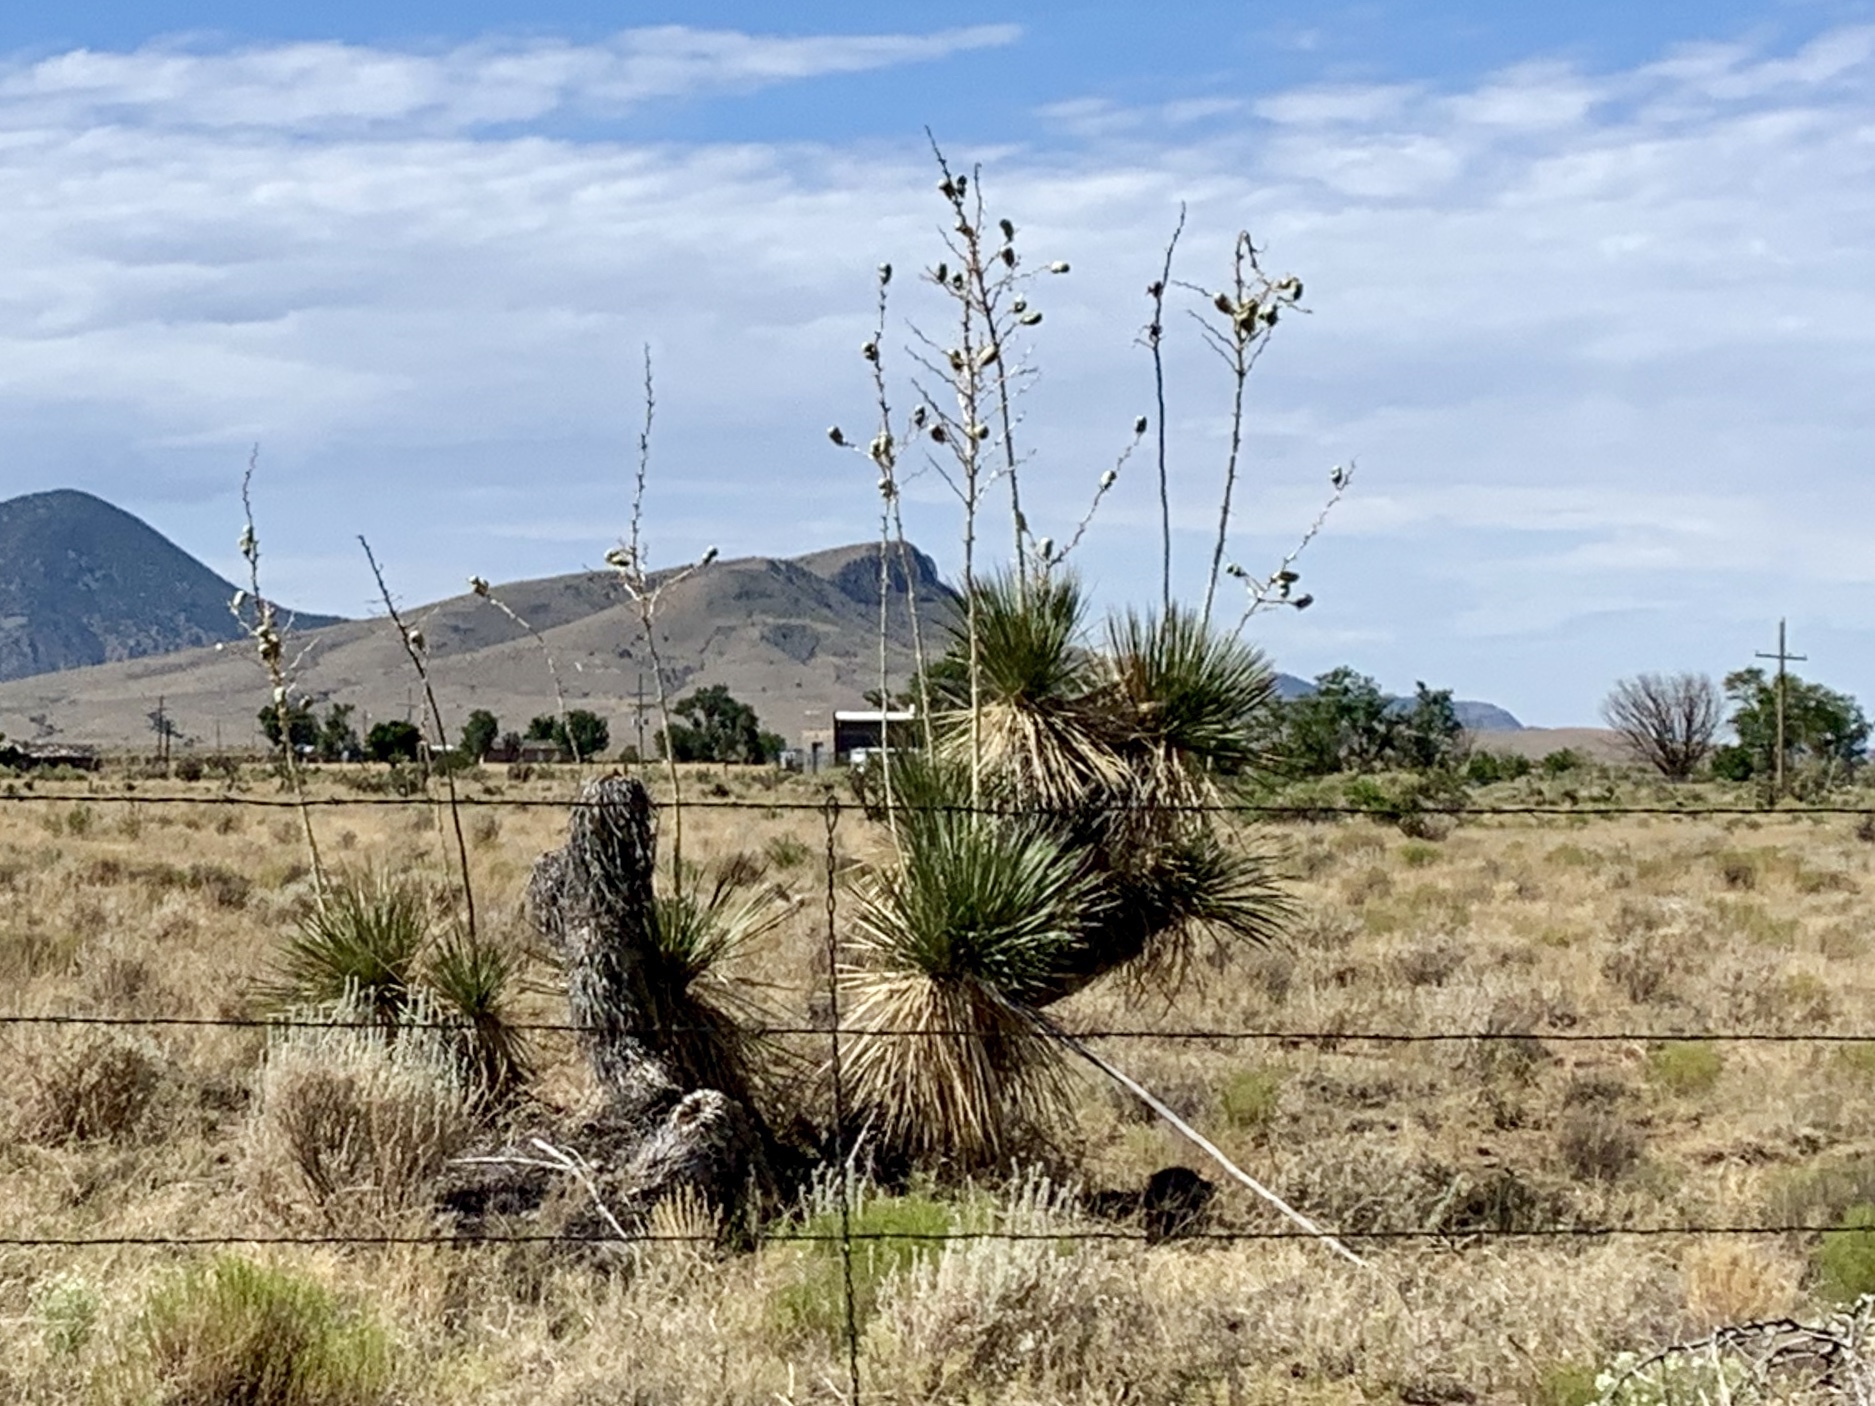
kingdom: Plantae
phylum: Tracheophyta
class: Liliopsida
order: Asparagales
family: Asparagaceae
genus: Yucca
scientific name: Yucca elata
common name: Palmella
